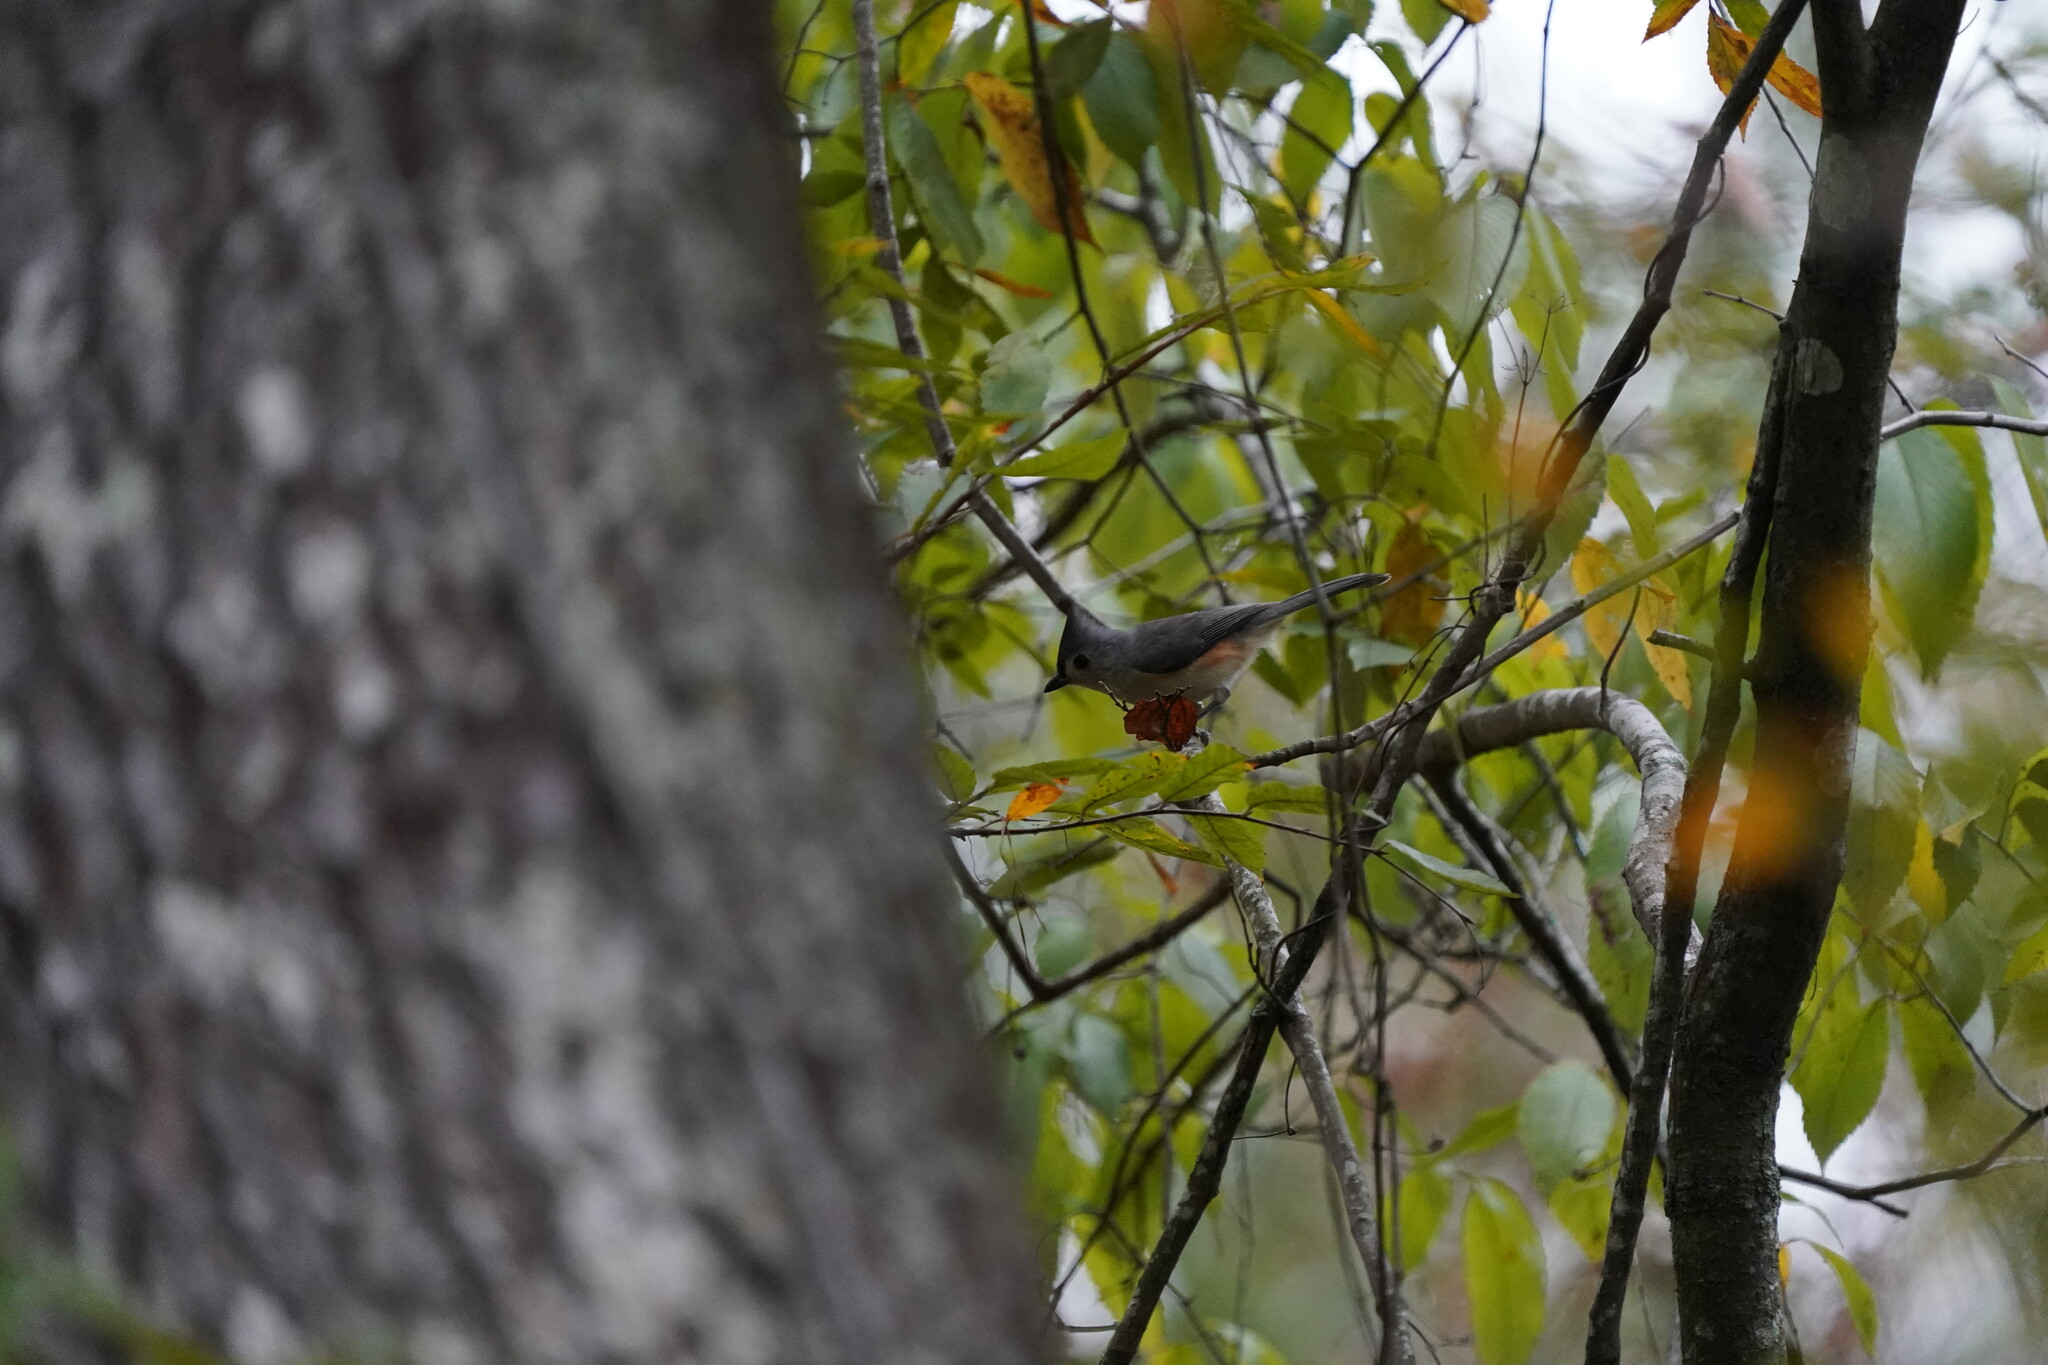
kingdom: Animalia
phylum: Chordata
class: Aves
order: Passeriformes
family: Paridae
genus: Baeolophus
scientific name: Baeolophus bicolor
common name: Tufted titmouse
